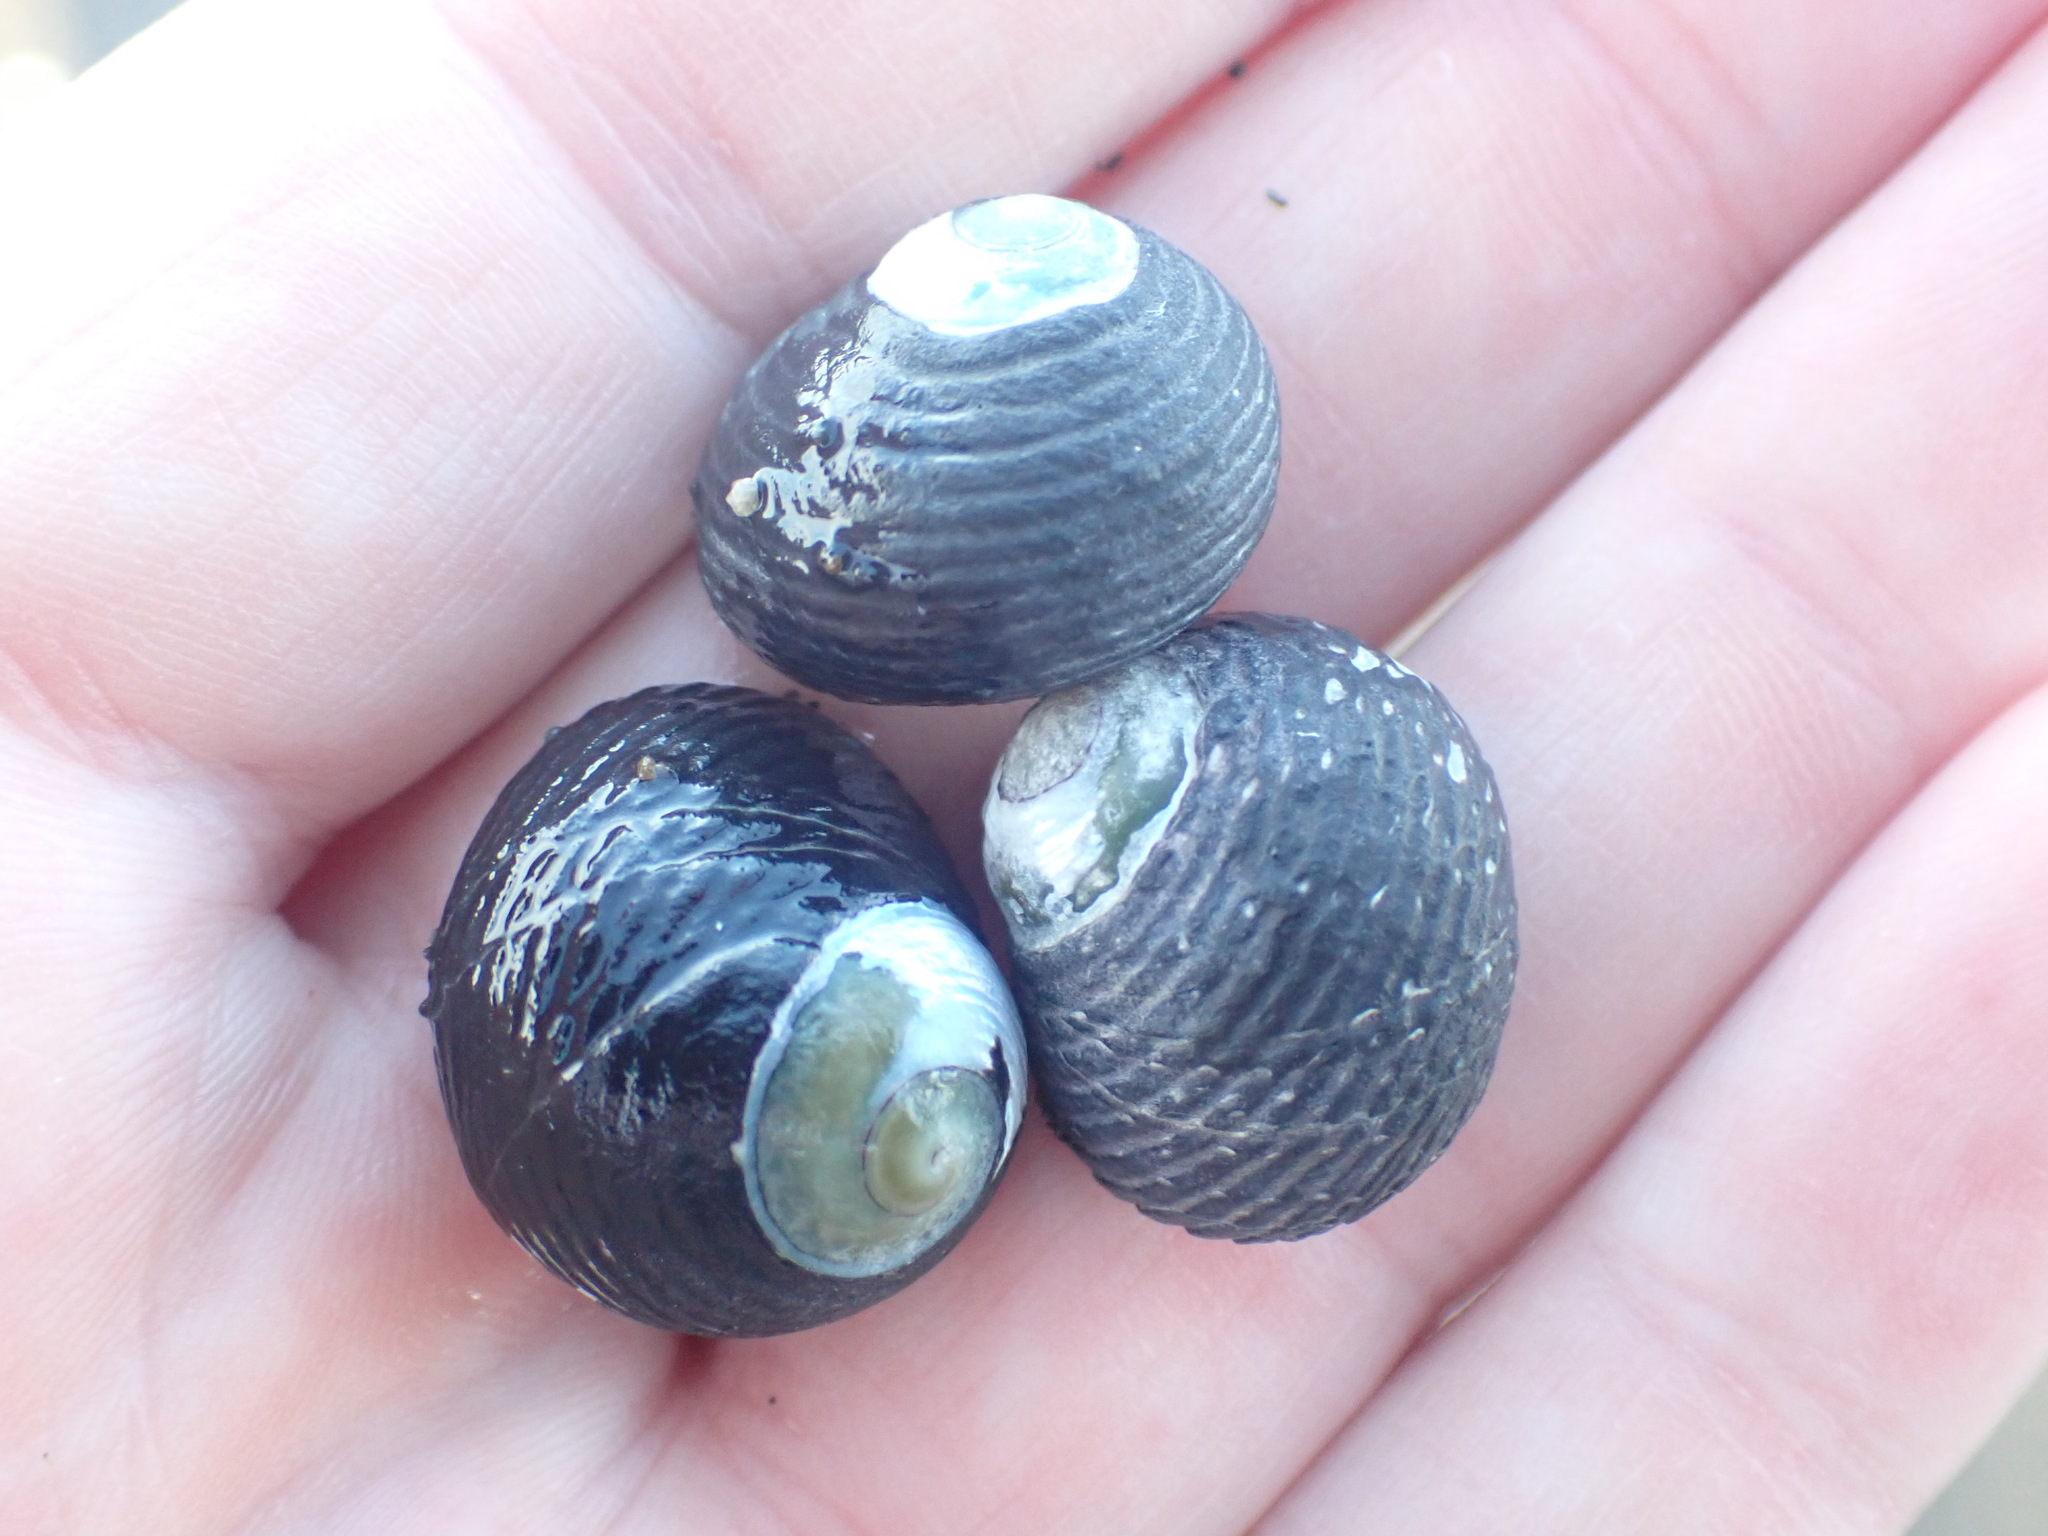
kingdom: Animalia
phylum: Mollusca
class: Gastropoda
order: Trochida
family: Trochidae
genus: Diloma
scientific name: Diloma zelandicum
